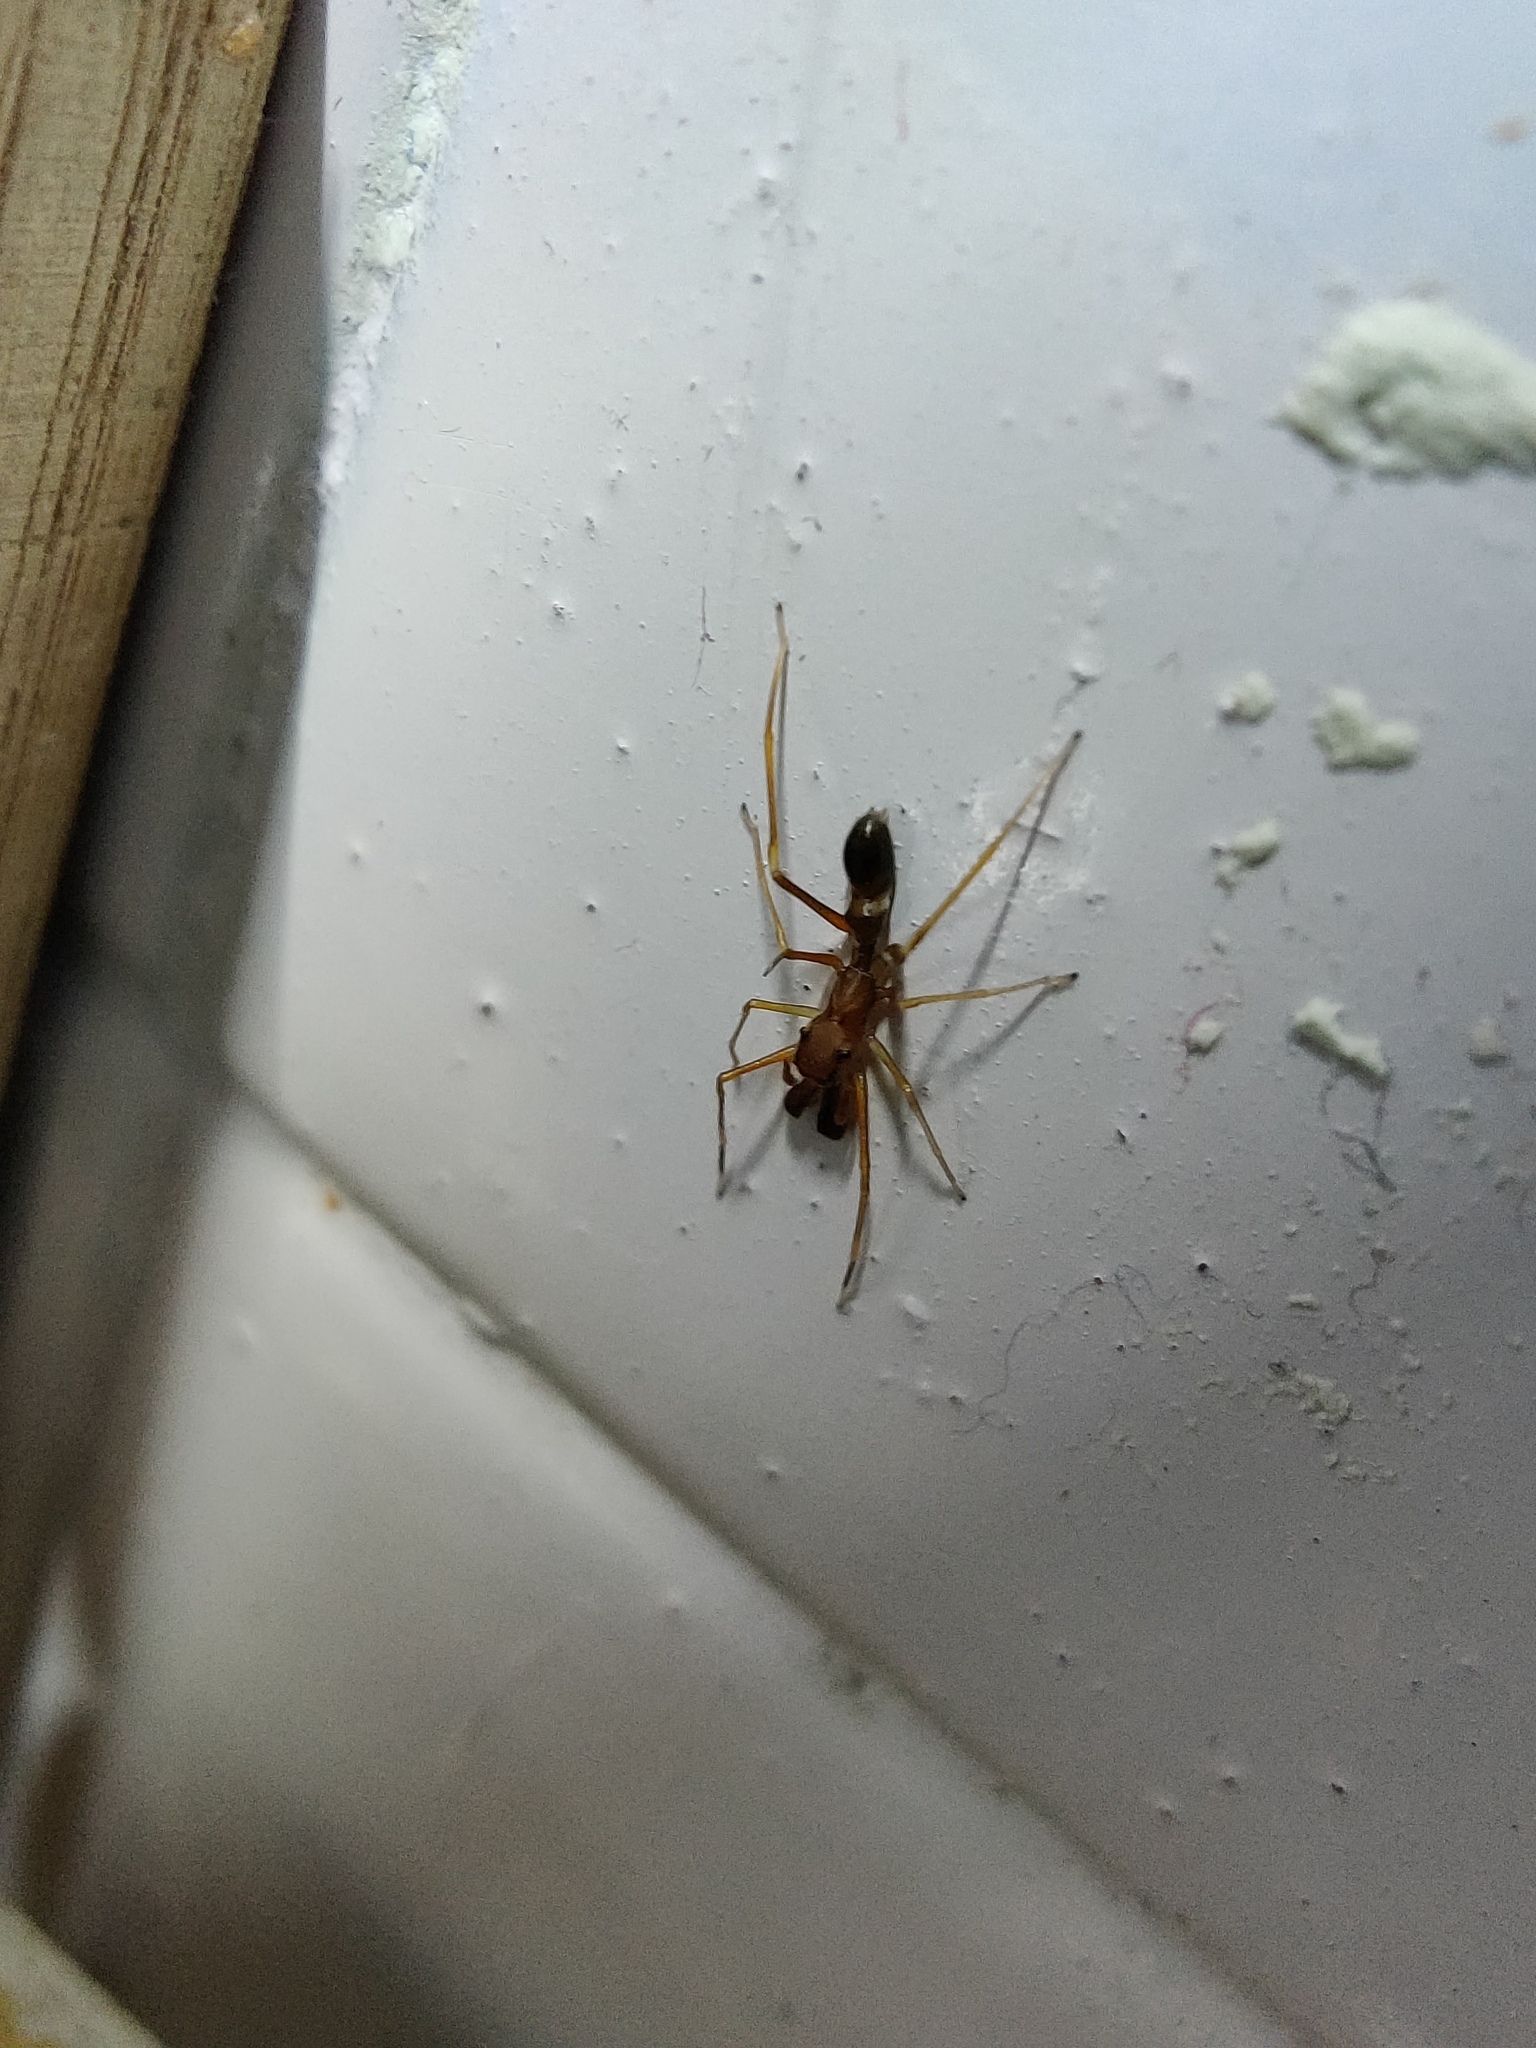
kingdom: Animalia
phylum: Arthropoda
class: Arachnida
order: Araneae
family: Salticidae
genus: Myrmarachne
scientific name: Myrmarachne melanocephala
